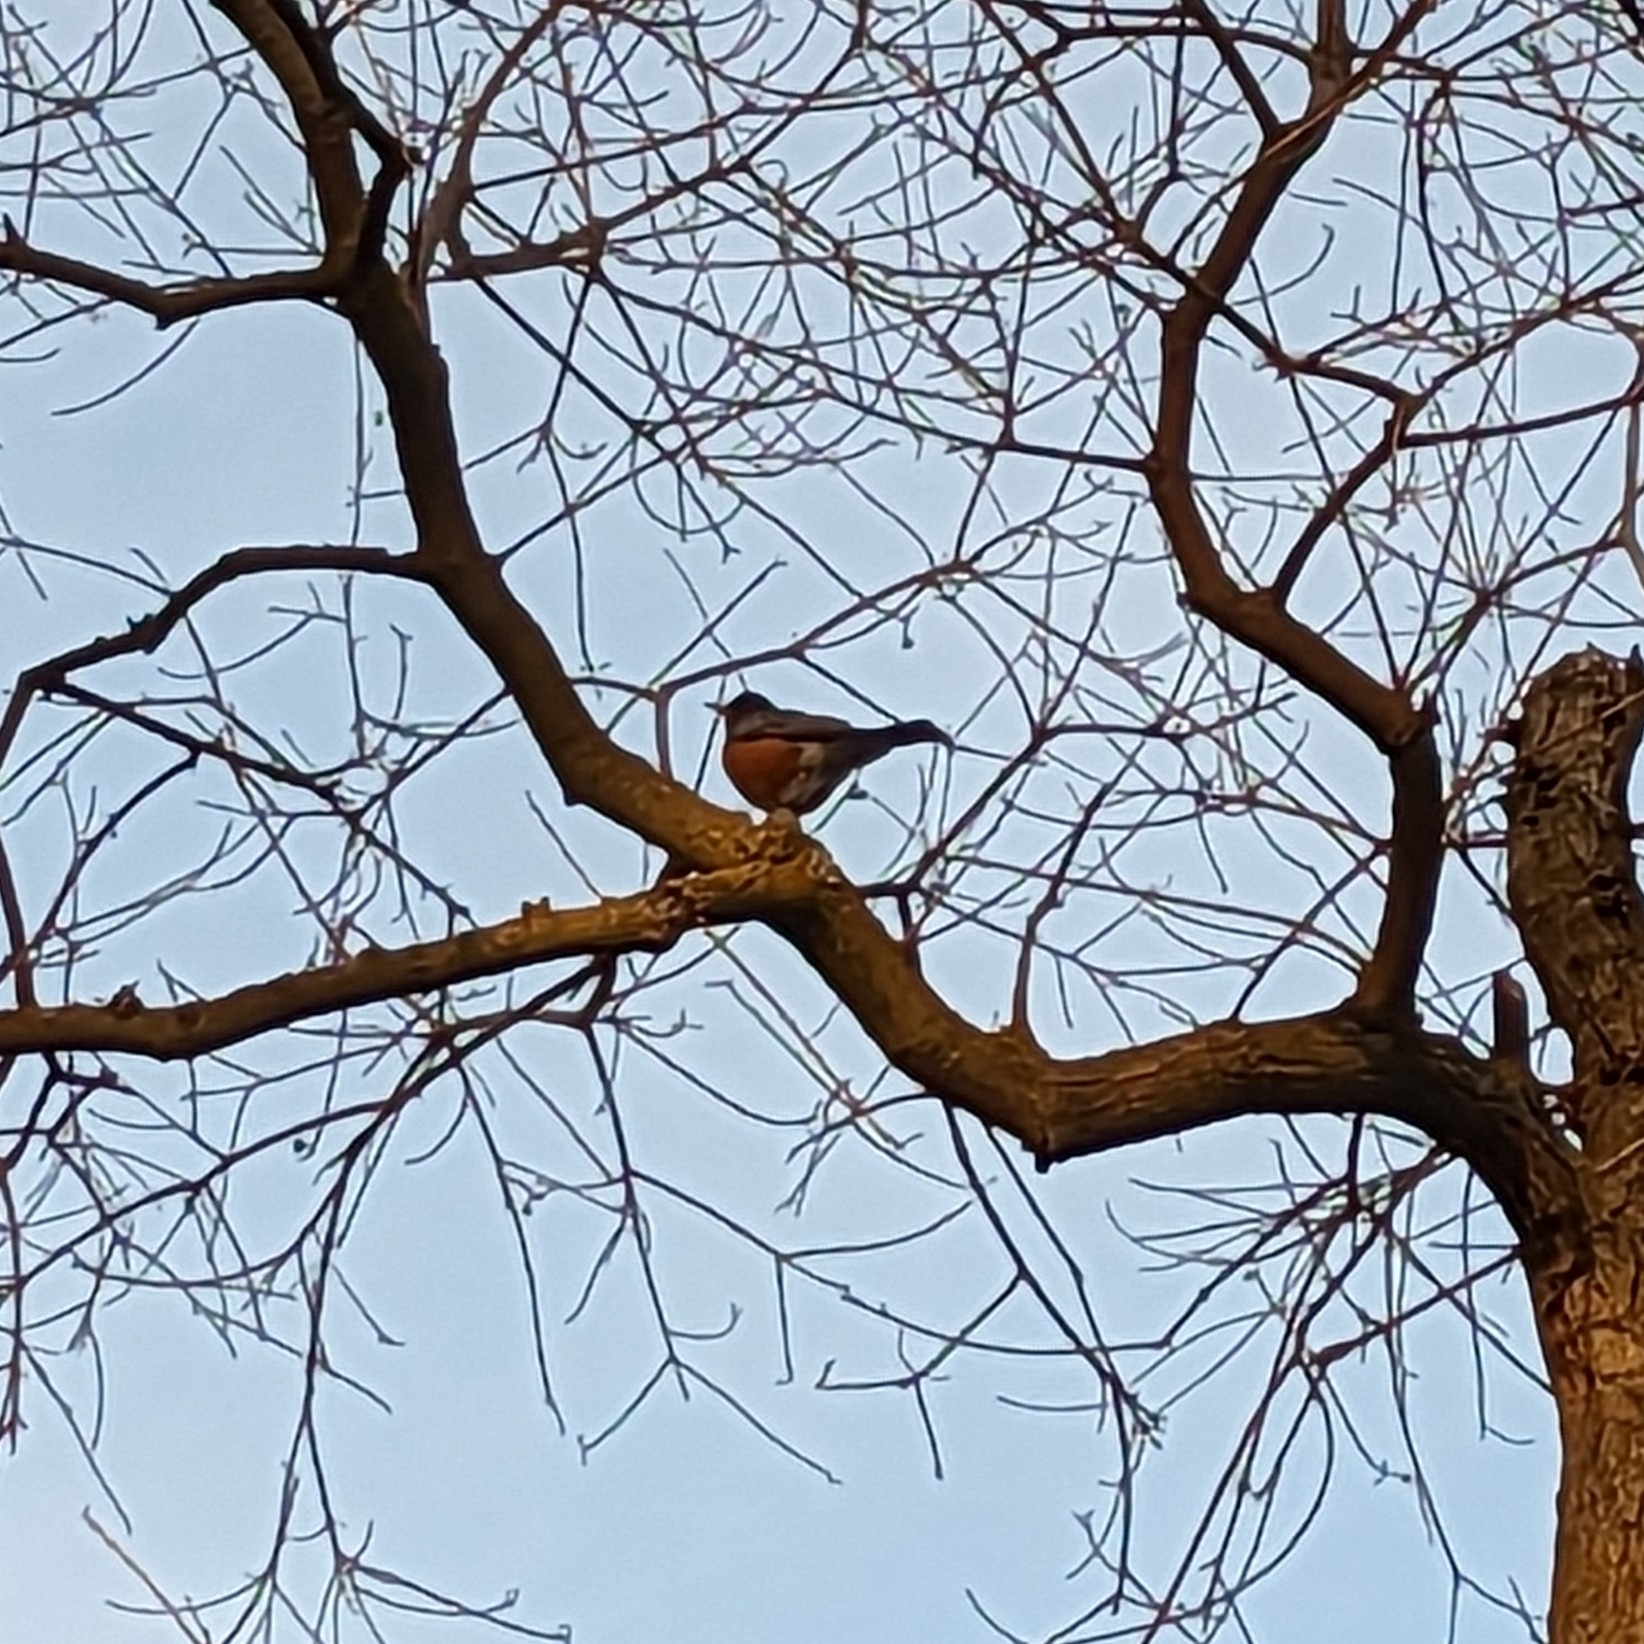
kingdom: Animalia
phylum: Chordata
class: Aves
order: Passeriformes
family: Turdidae
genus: Turdus
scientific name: Turdus migratorius
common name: American robin
